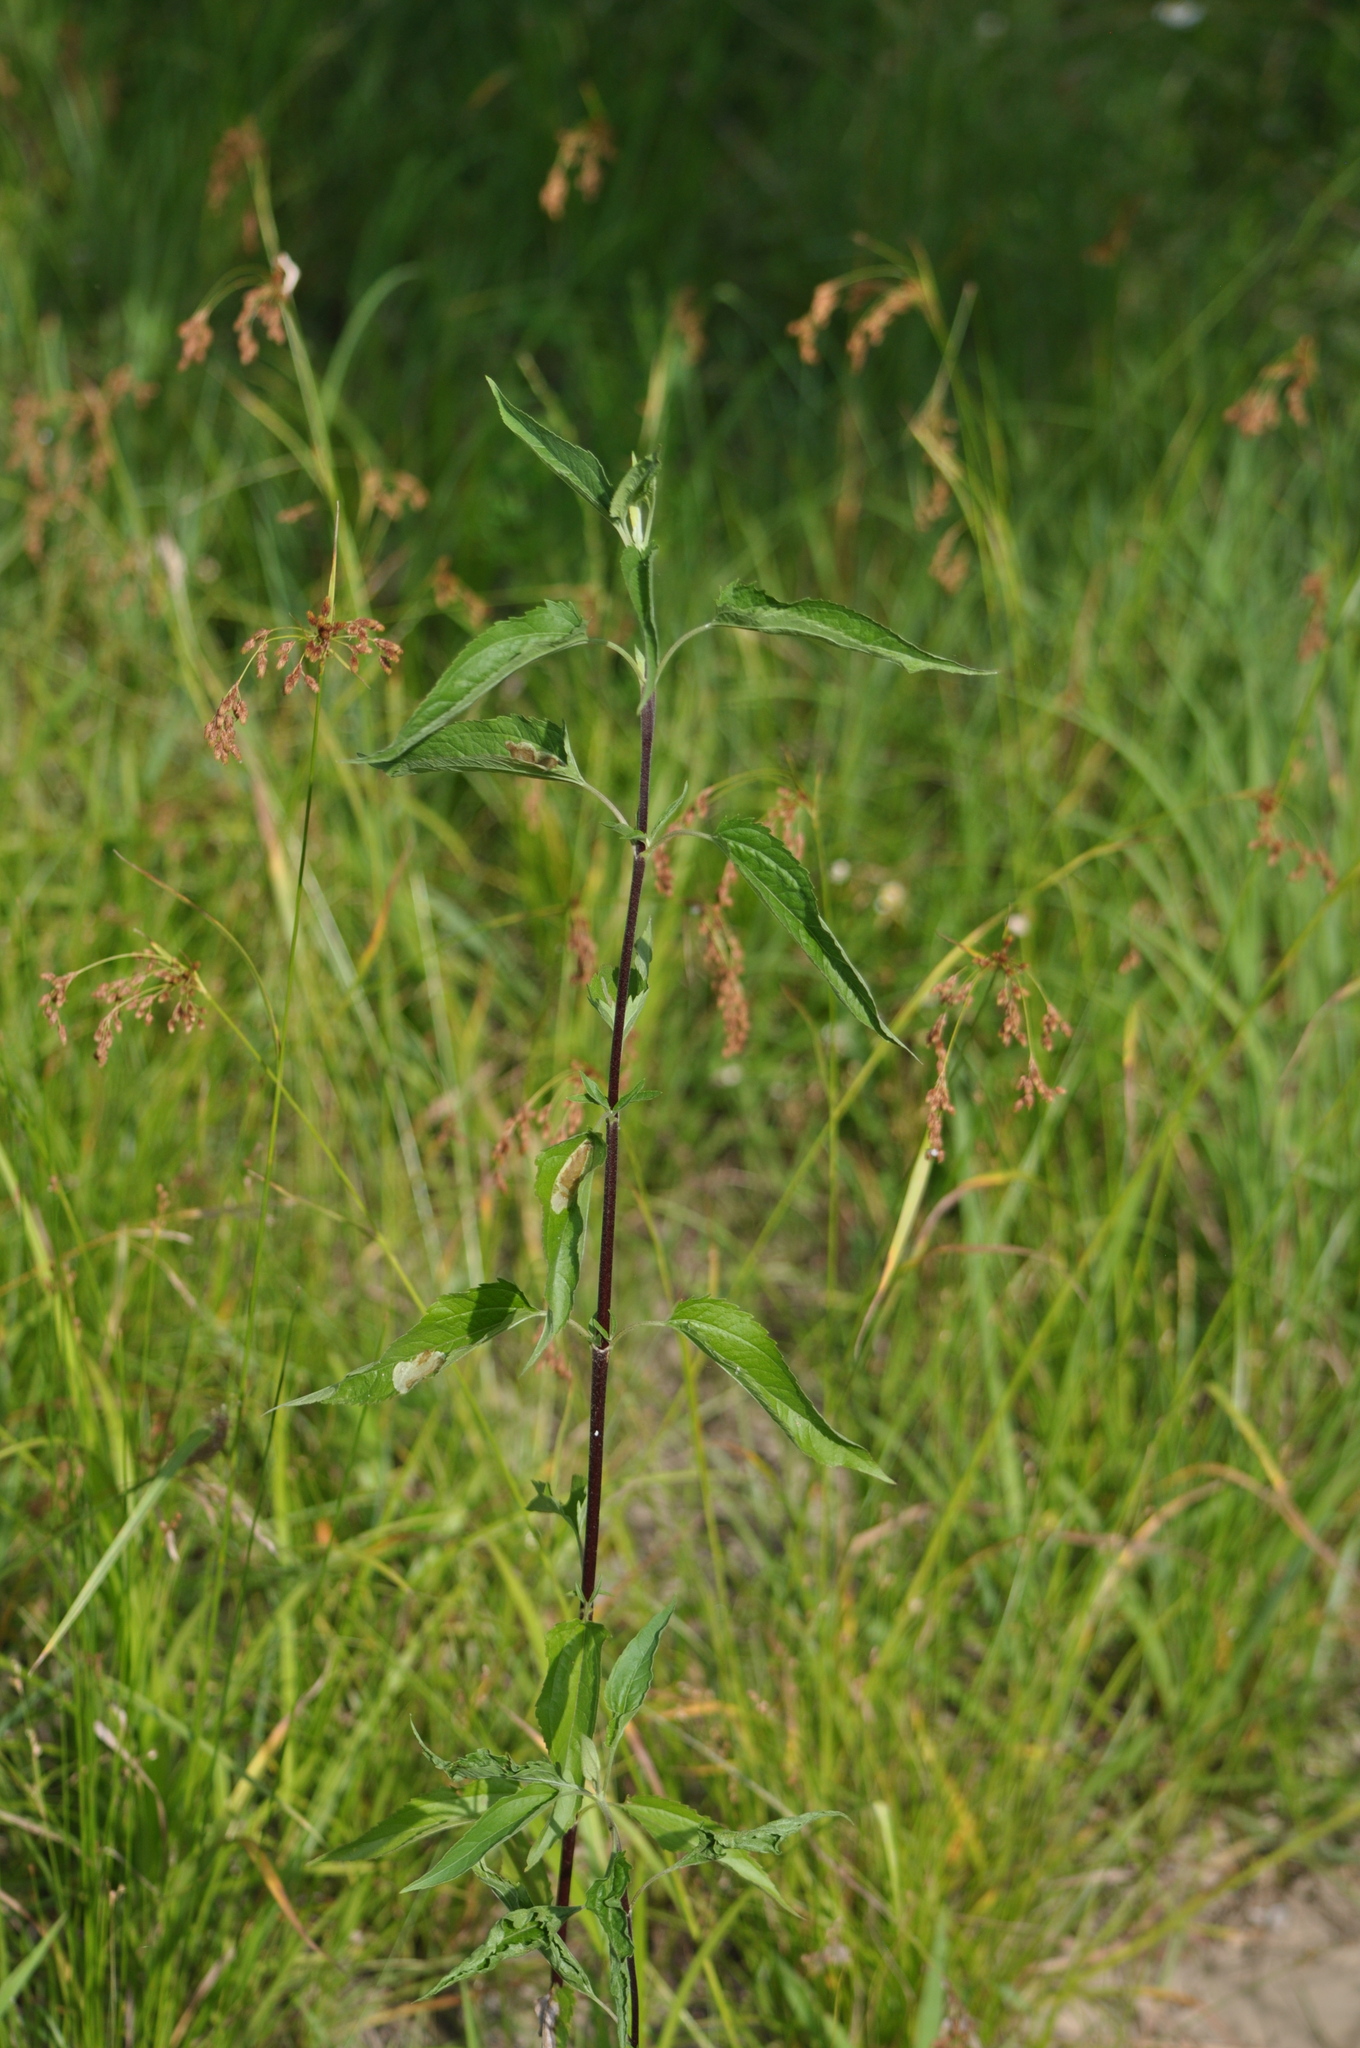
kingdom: Plantae
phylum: Tracheophyta
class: Magnoliopsida
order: Asterales
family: Asteraceae
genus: Eupatorium
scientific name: Eupatorium serotinum
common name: Late boneset
